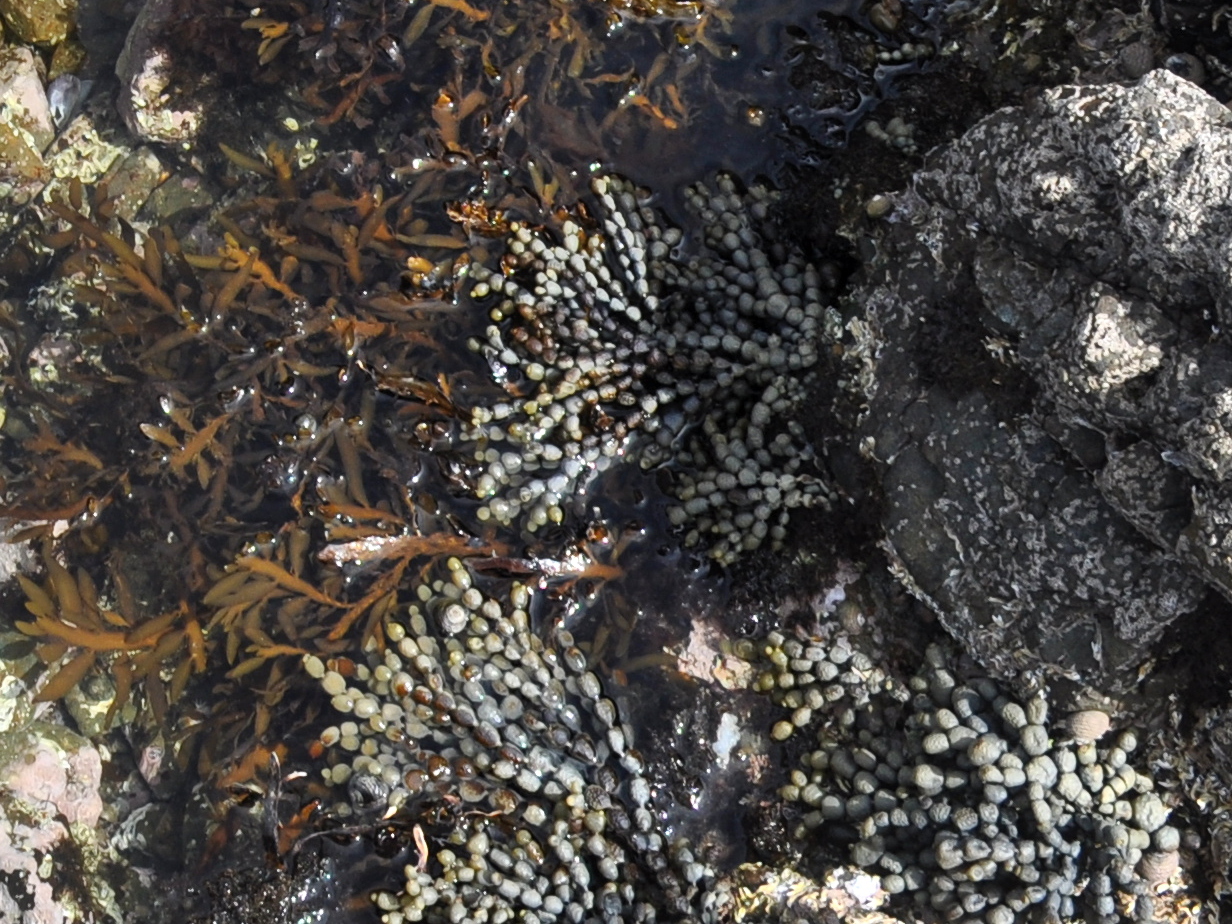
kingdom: Chromista
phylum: Ochrophyta
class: Phaeophyceae
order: Fucales
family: Hormosiraceae
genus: Hormosira
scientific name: Hormosira banksii
